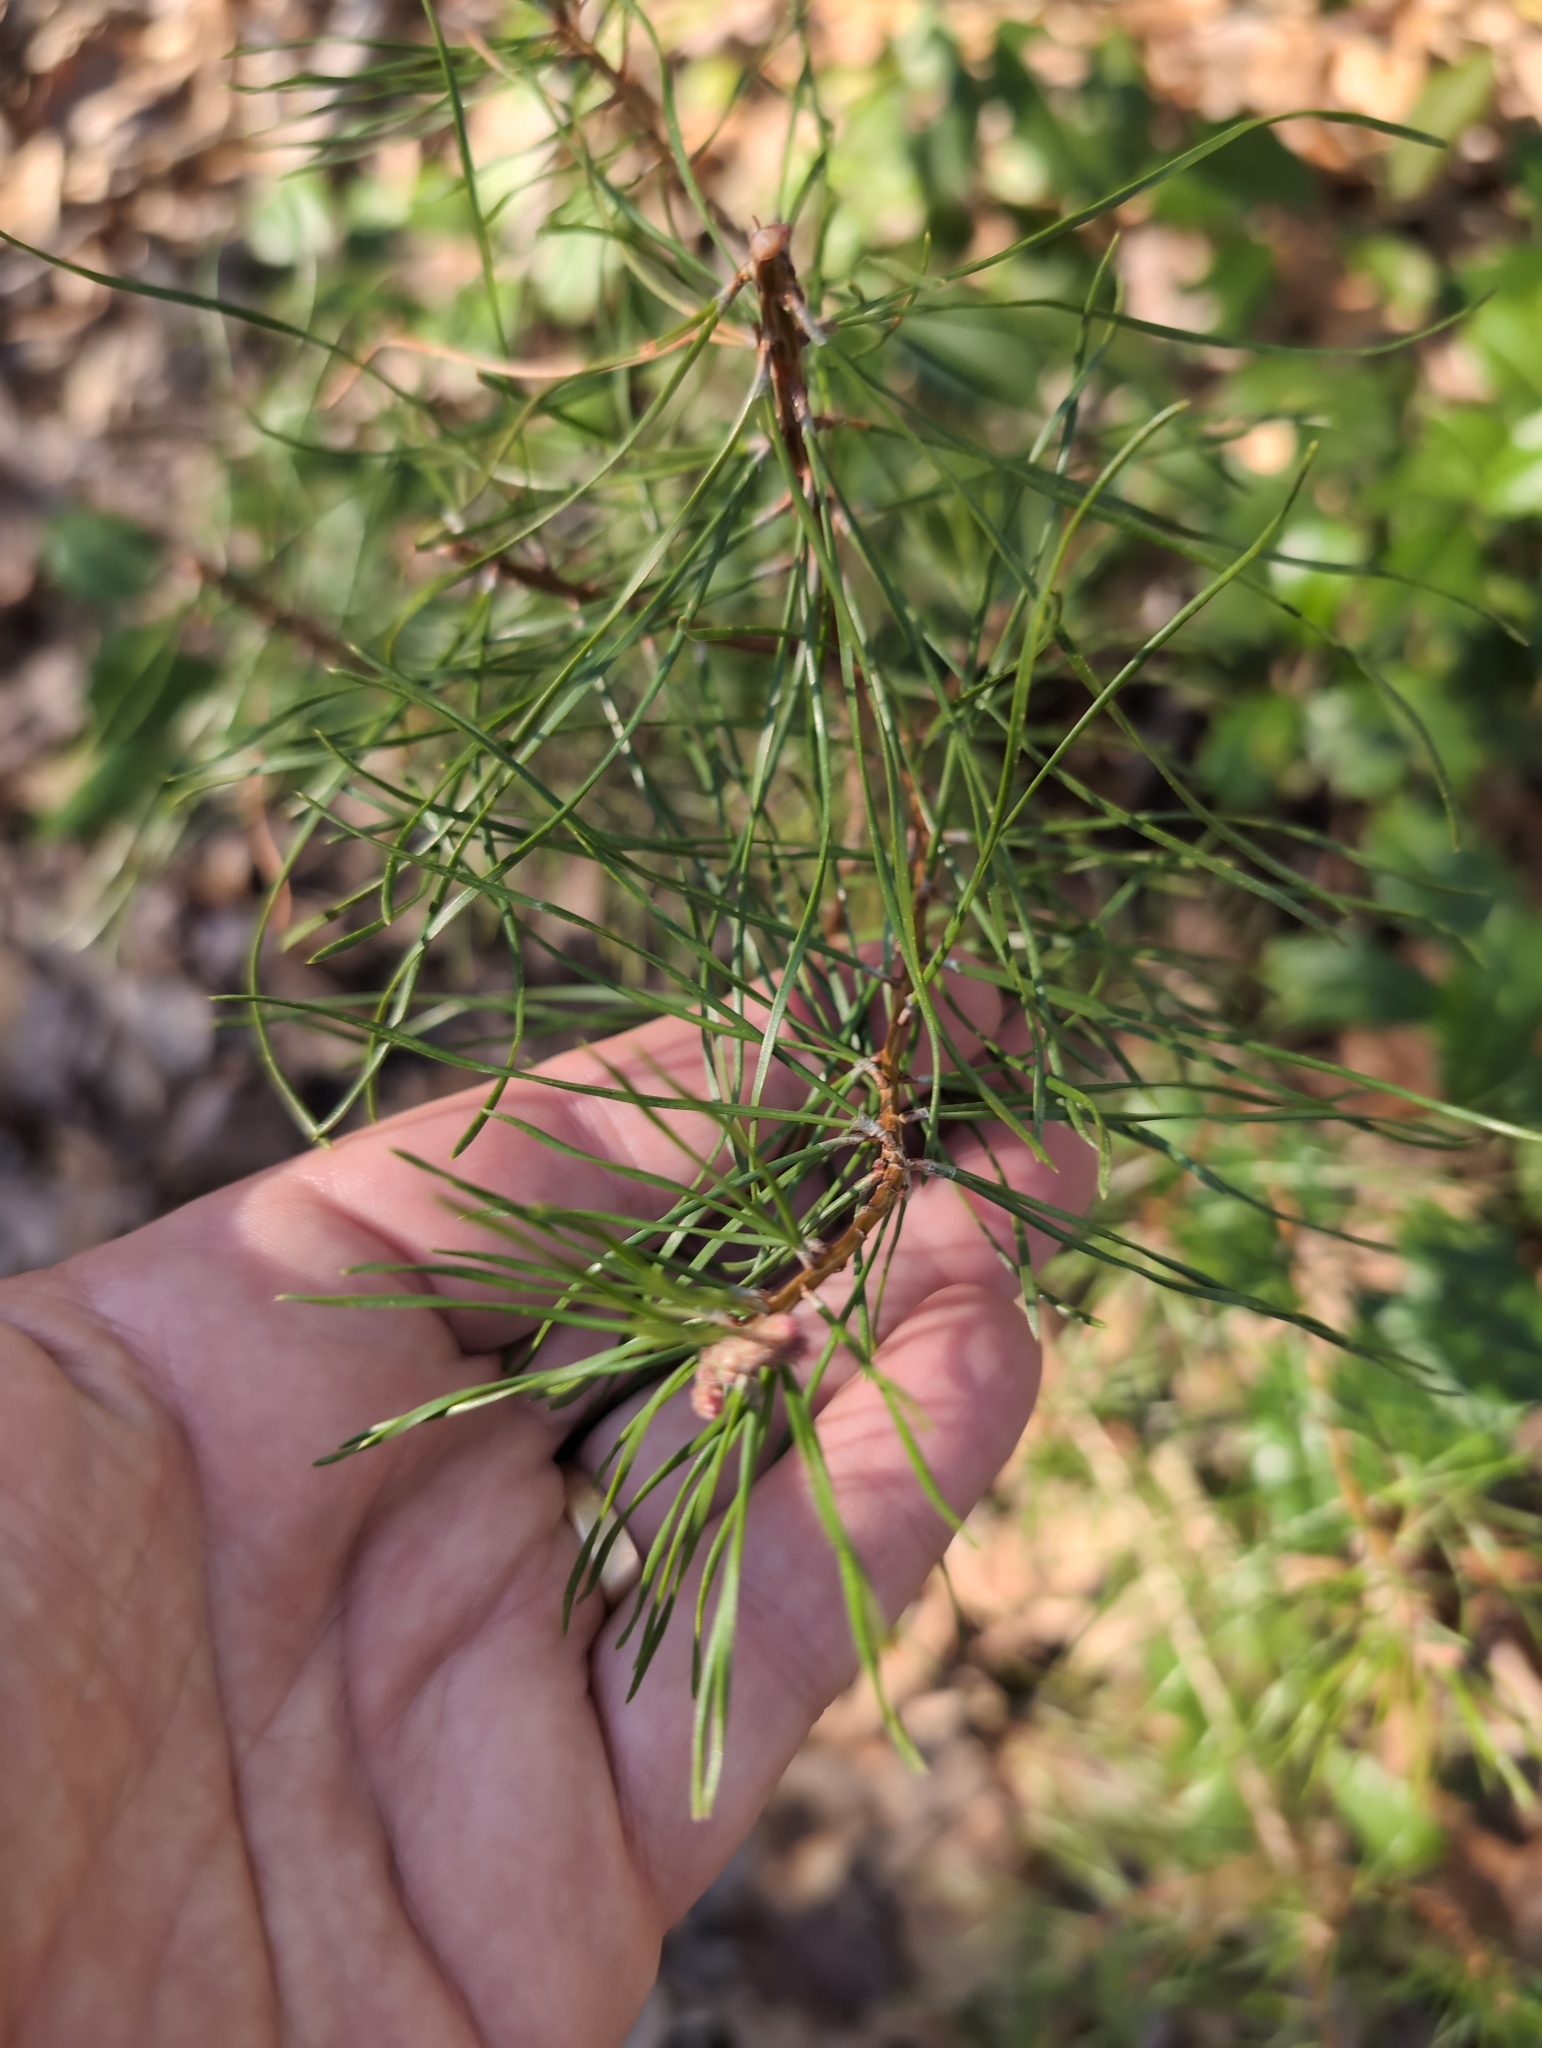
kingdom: Plantae
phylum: Tracheophyta
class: Pinopsida
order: Pinales
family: Pinaceae
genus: Pinus
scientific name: Pinus virginiana
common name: Scrub pine
